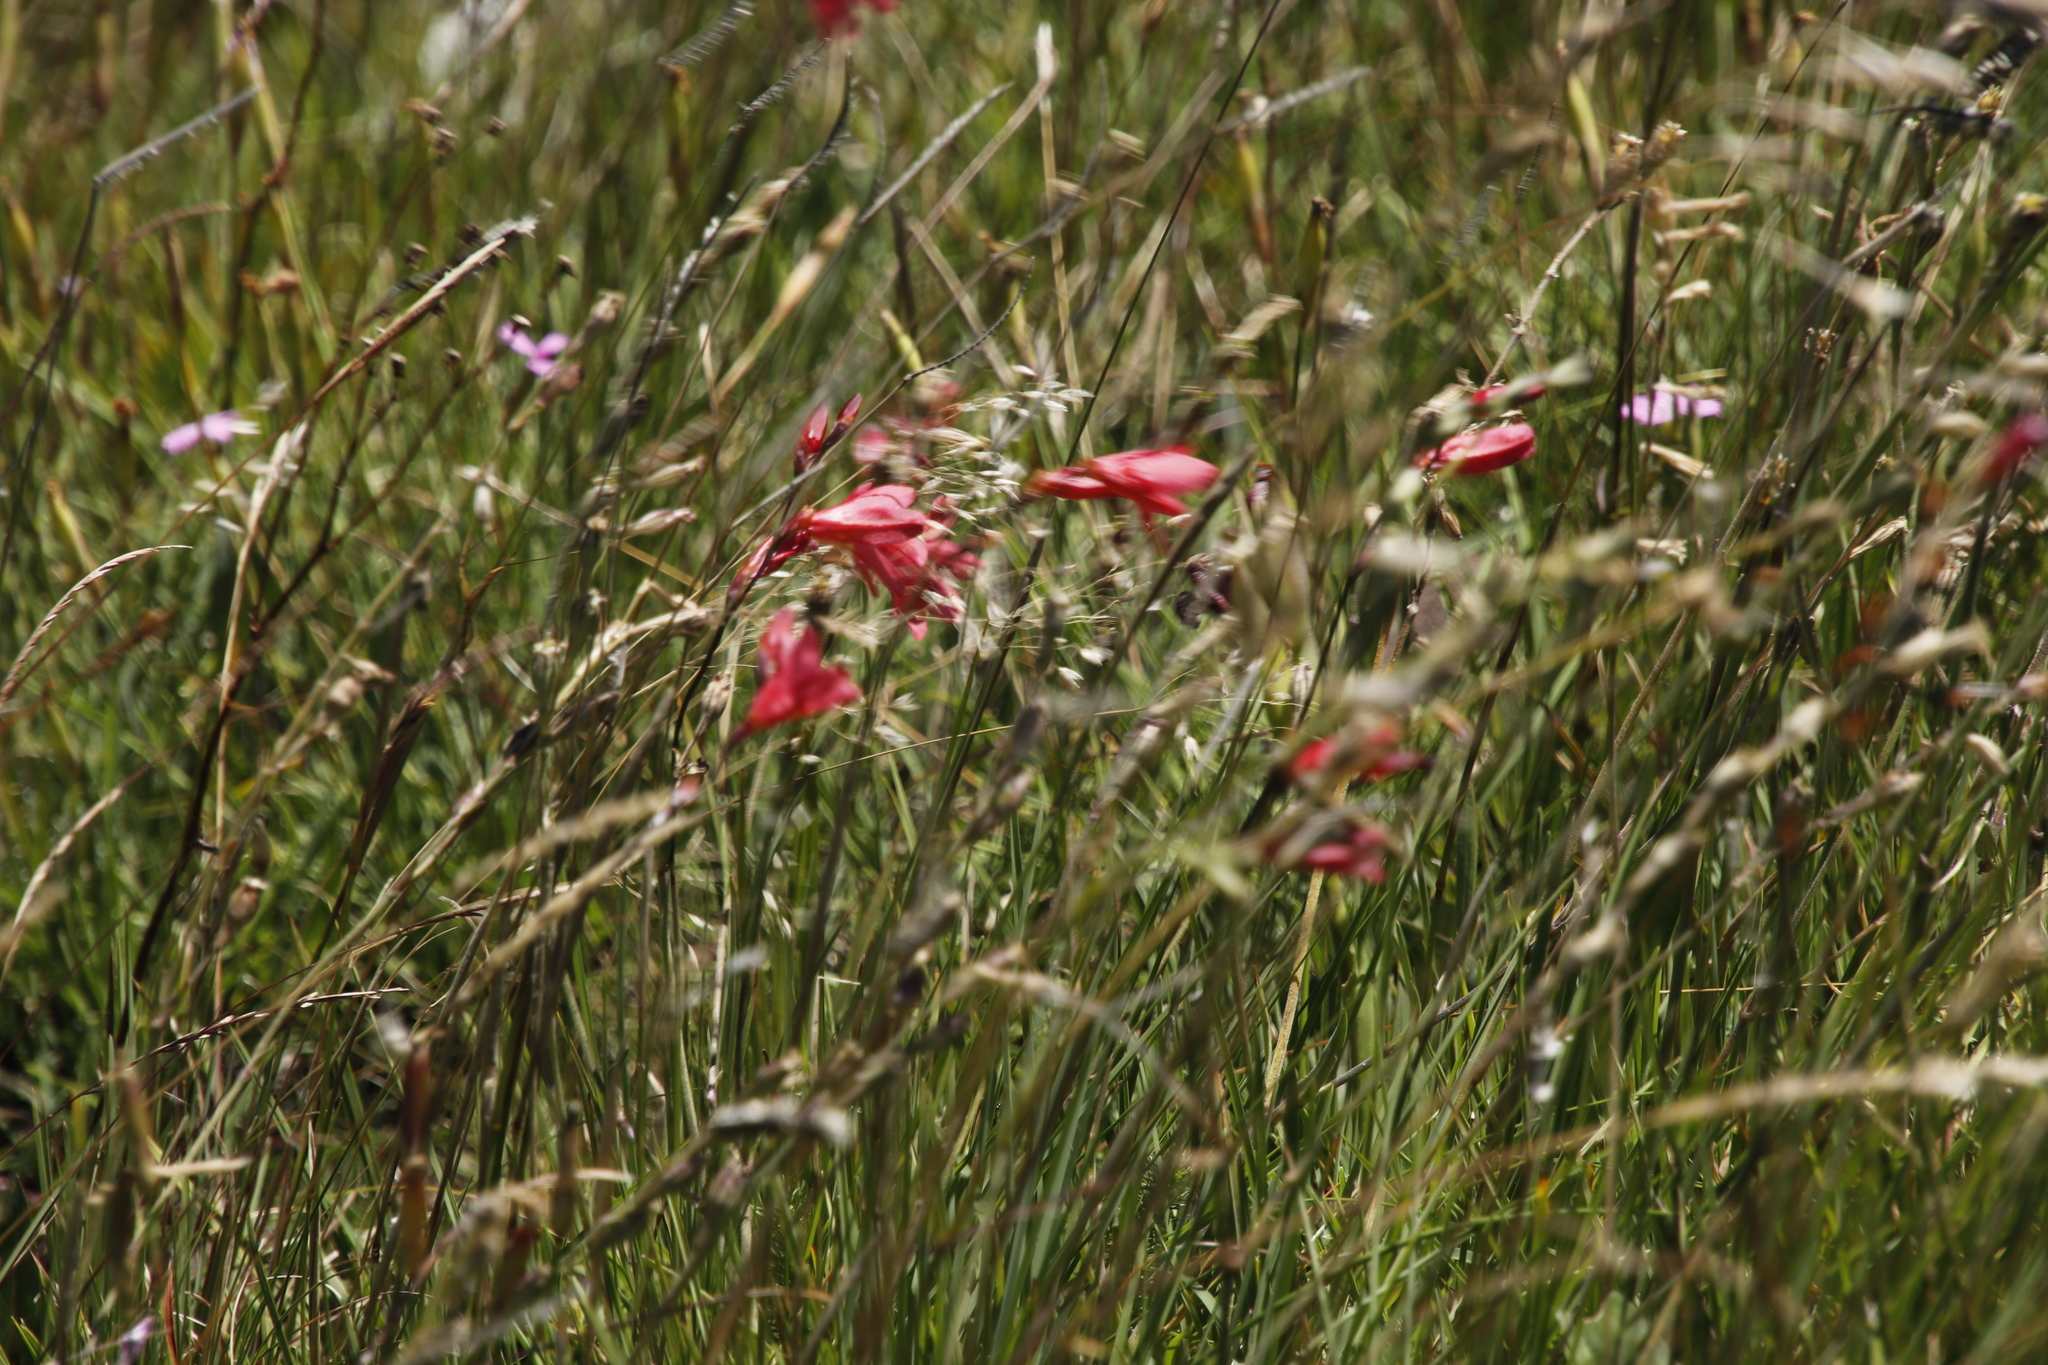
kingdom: Plantae
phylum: Tracheophyta
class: Liliopsida
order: Asparagales
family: Iridaceae
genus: Tritonia
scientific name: Tritonia drakensbergensis
